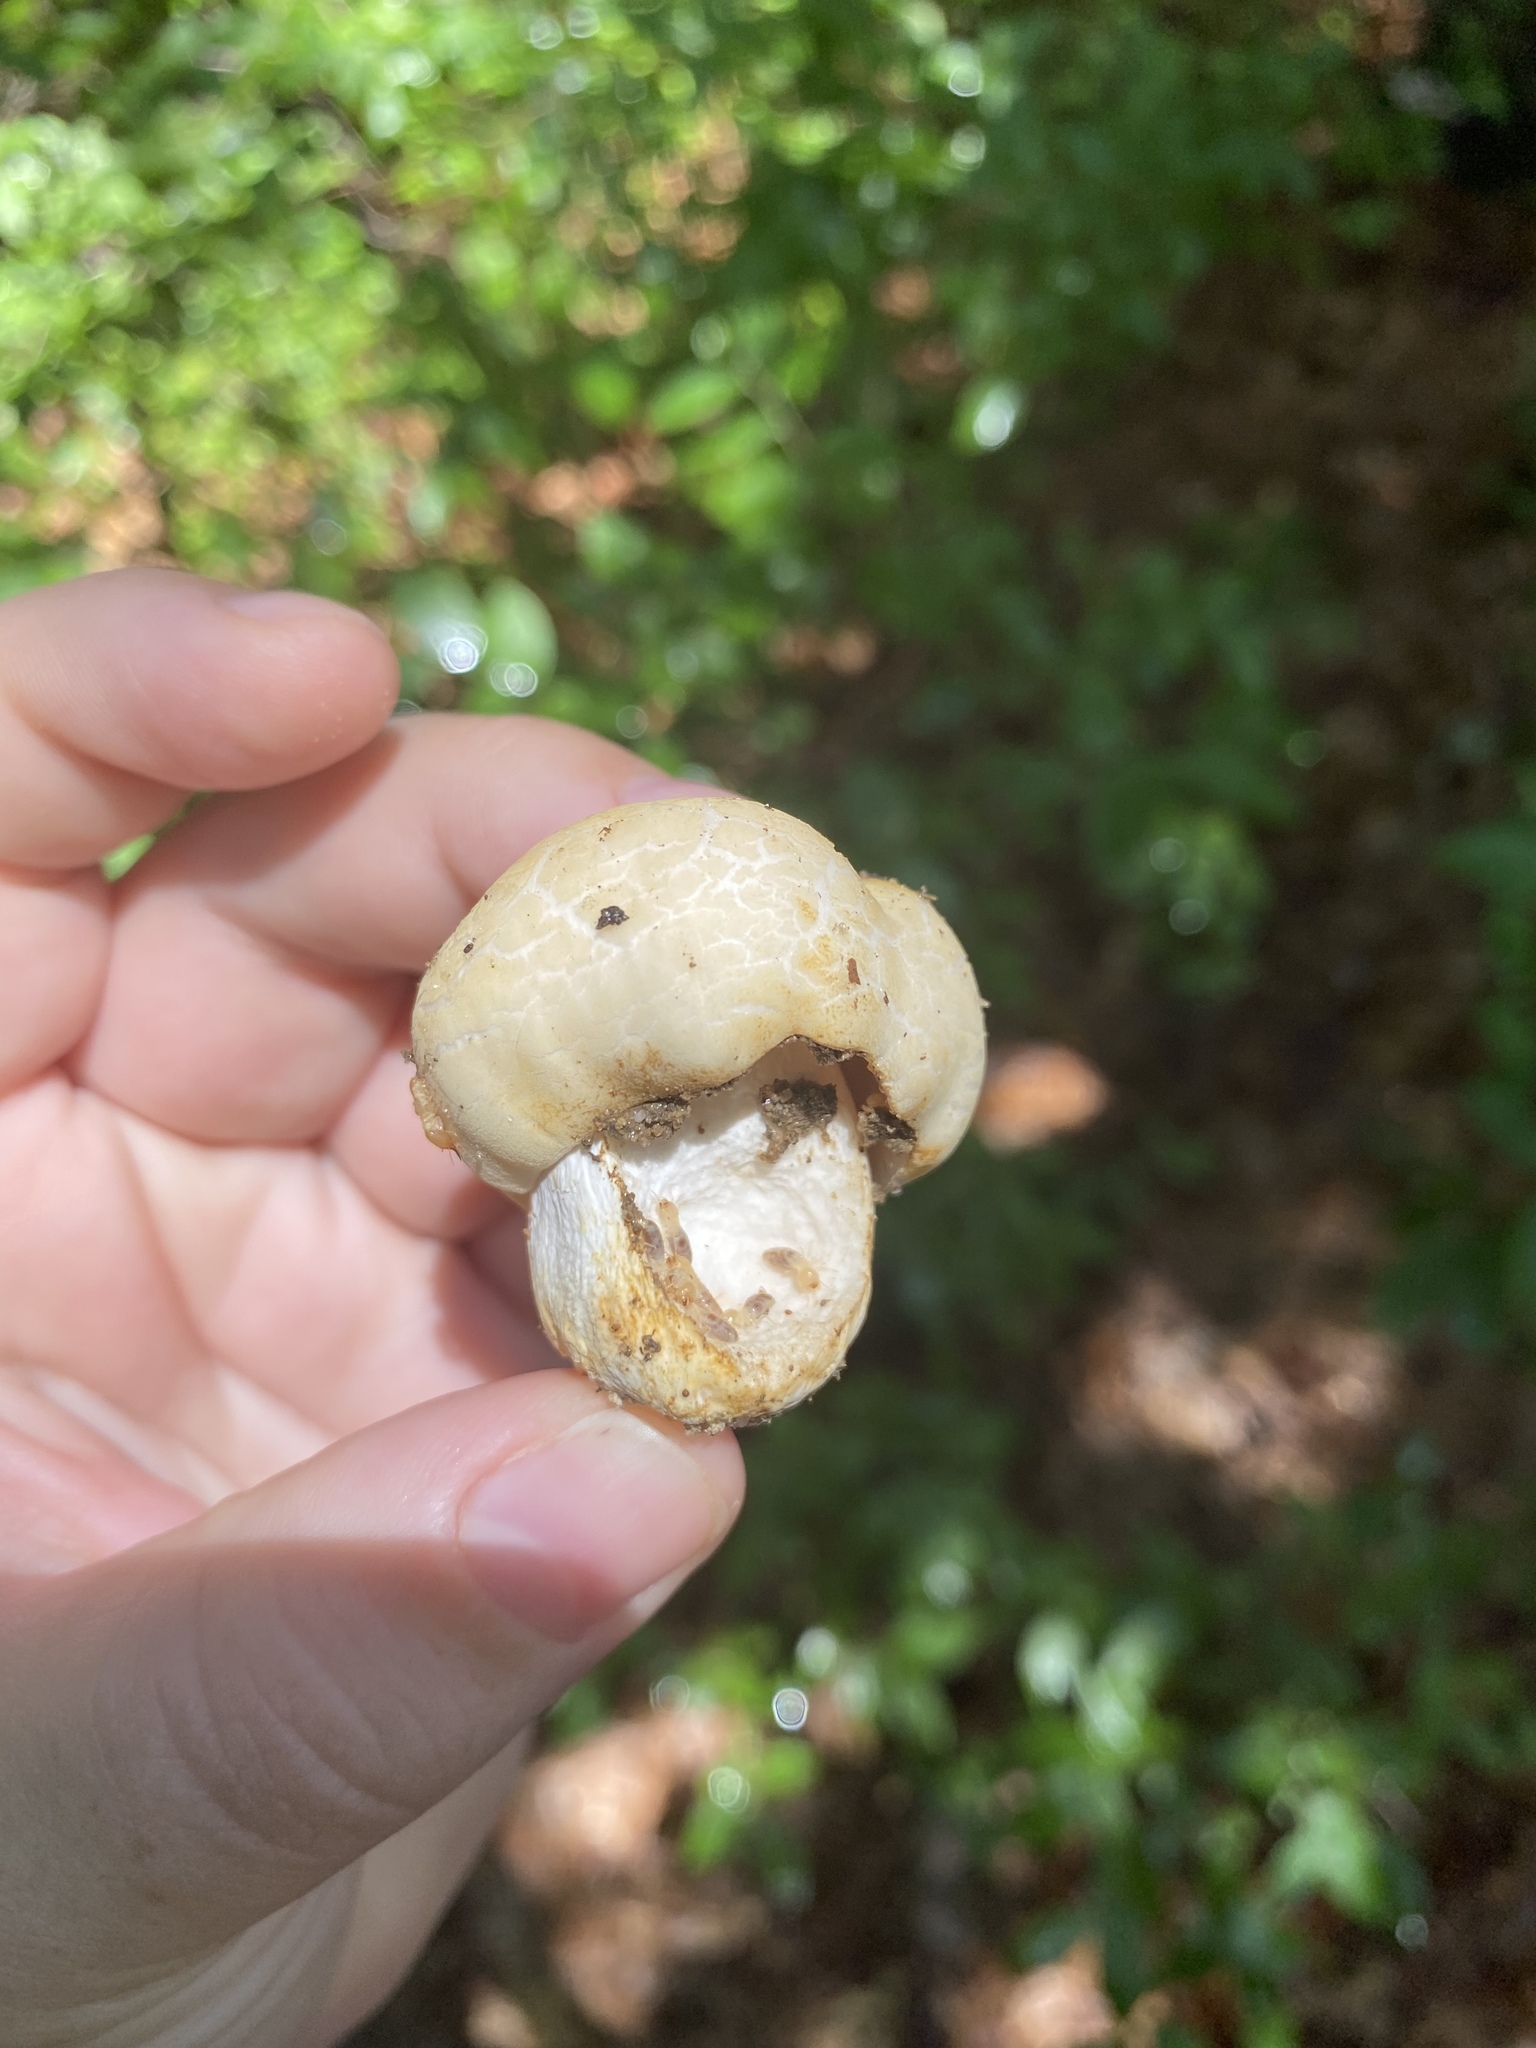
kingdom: Fungi
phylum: Basidiomycota
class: Agaricomycetes
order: Russulales
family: Russulaceae
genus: Russula
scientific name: Russula crustosa
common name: Green quilt russula
